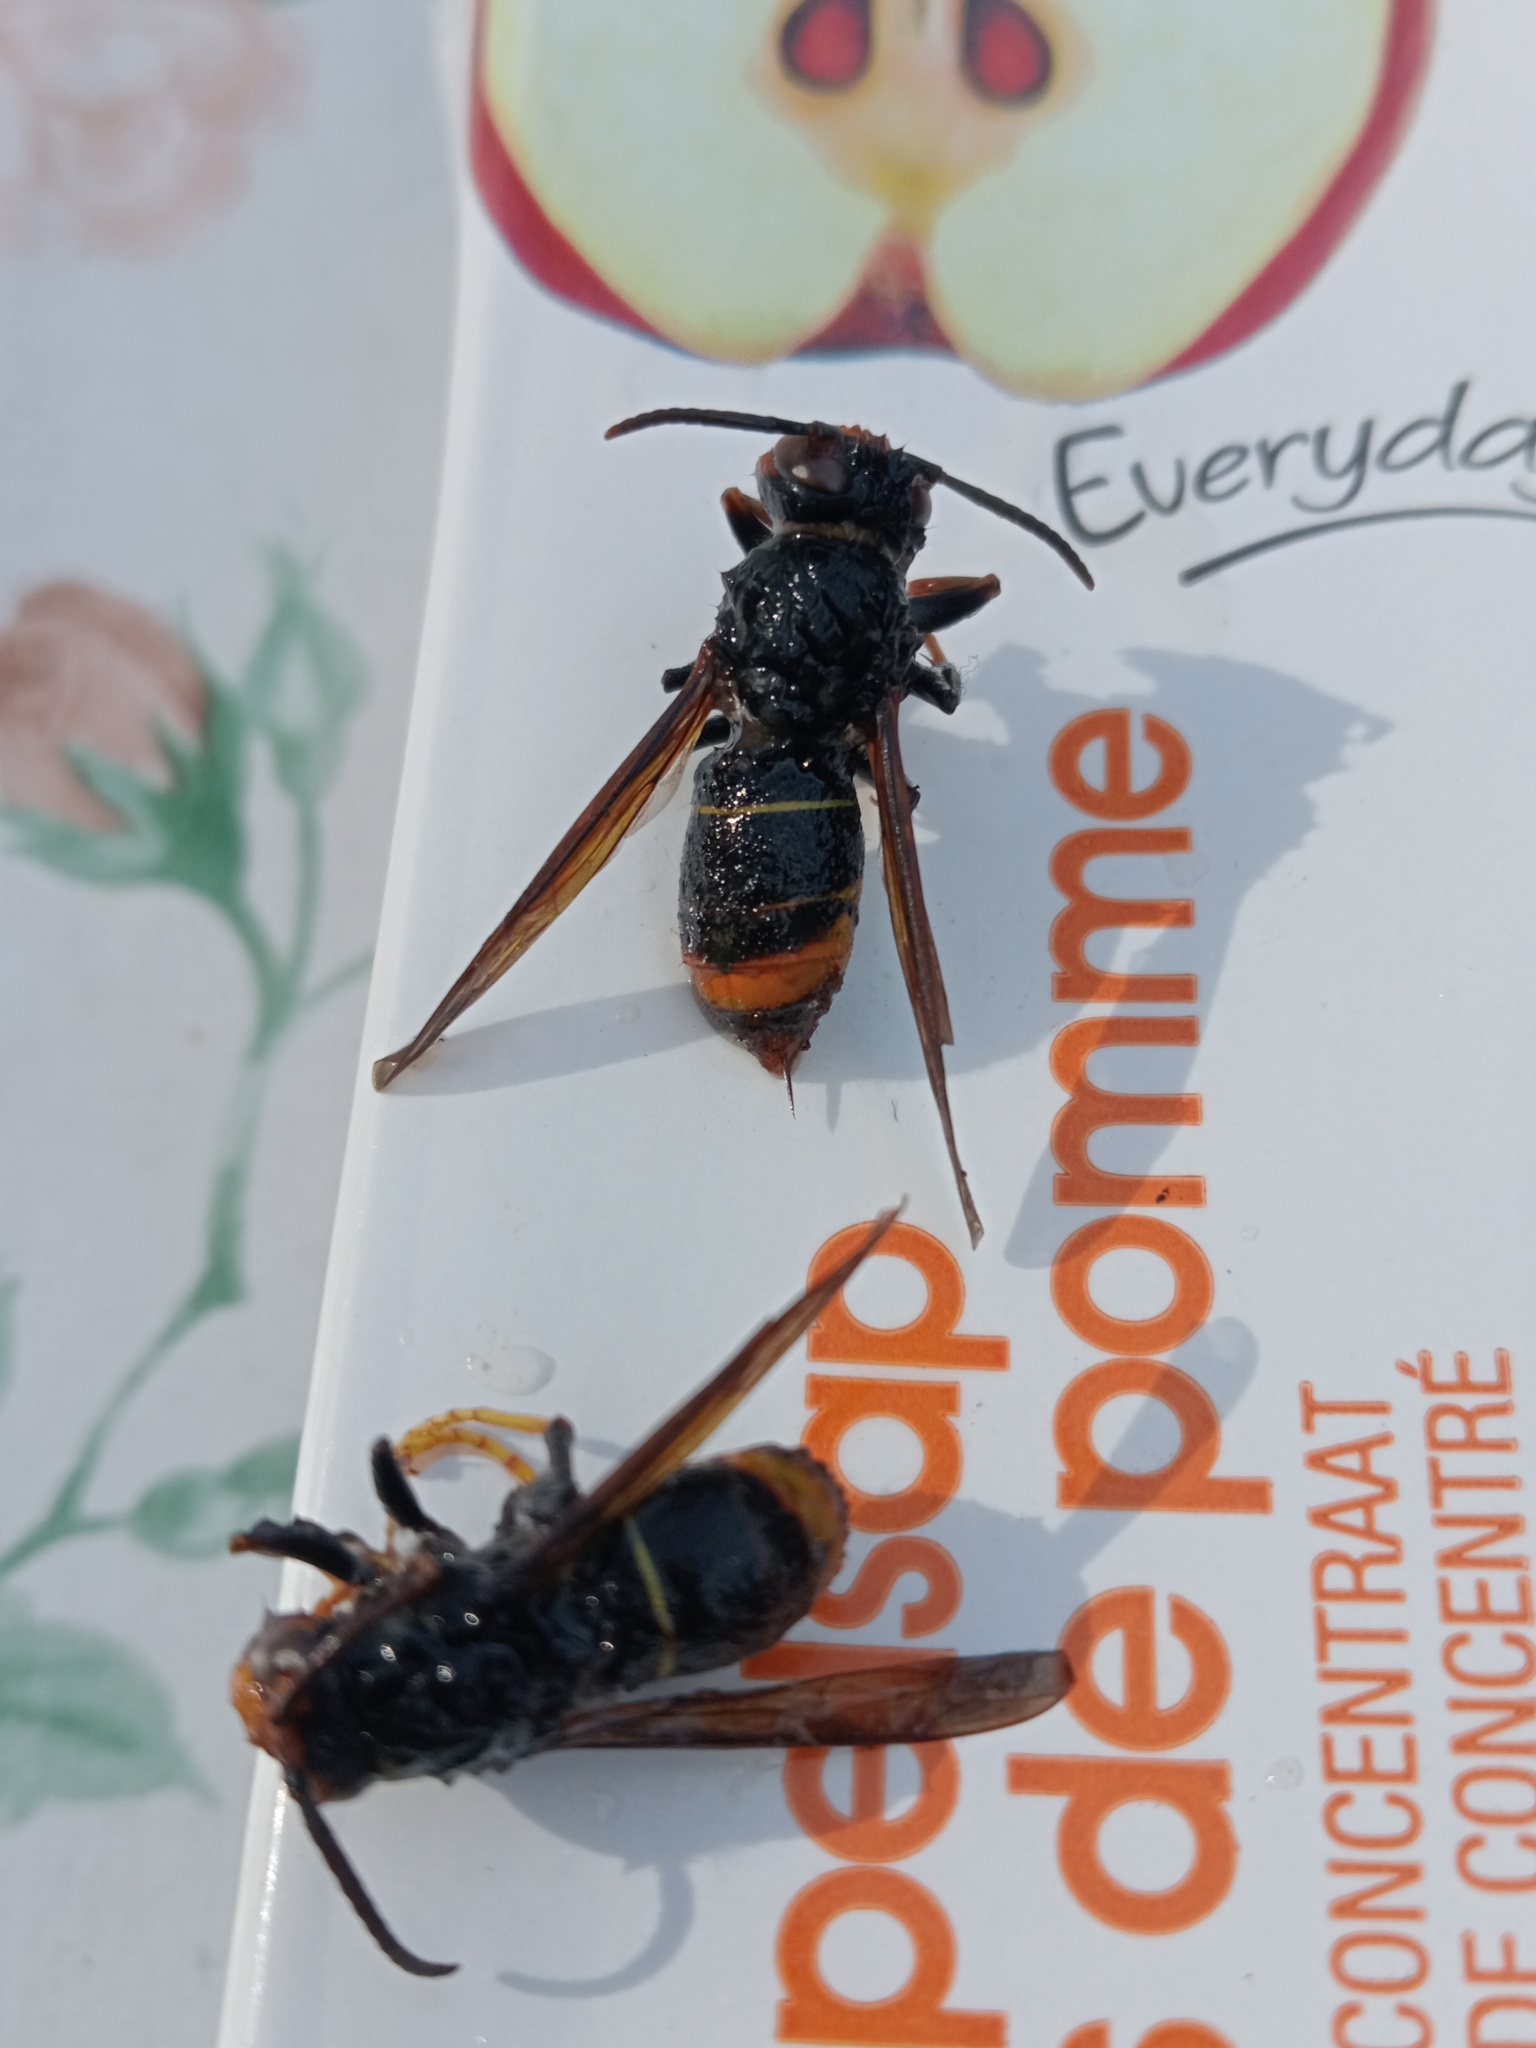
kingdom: Animalia
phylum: Arthropoda
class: Insecta
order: Hymenoptera
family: Vespidae
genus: Vespa
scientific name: Vespa velutina
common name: Asian hornet
